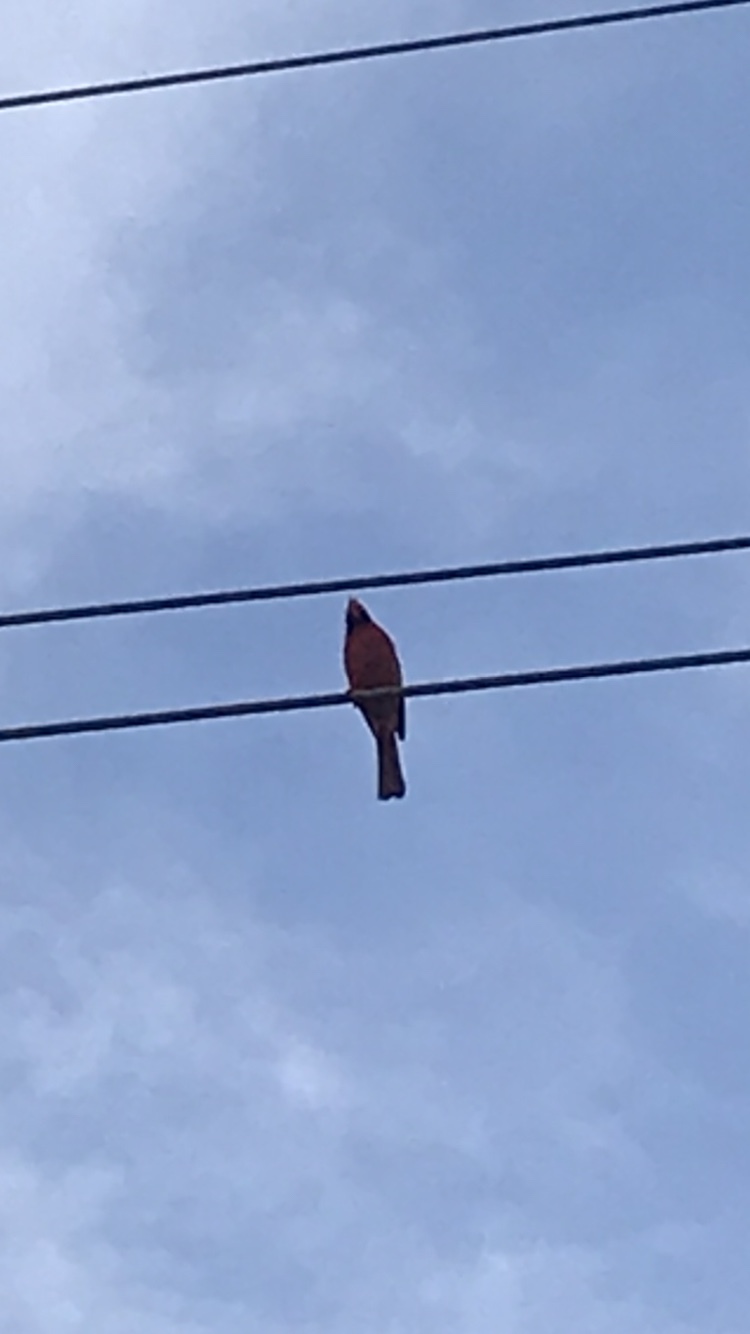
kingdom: Animalia
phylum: Chordata
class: Aves
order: Passeriformes
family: Cardinalidae
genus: Cardinalis
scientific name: Cardinalis cardinalis
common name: Northern cardinal
